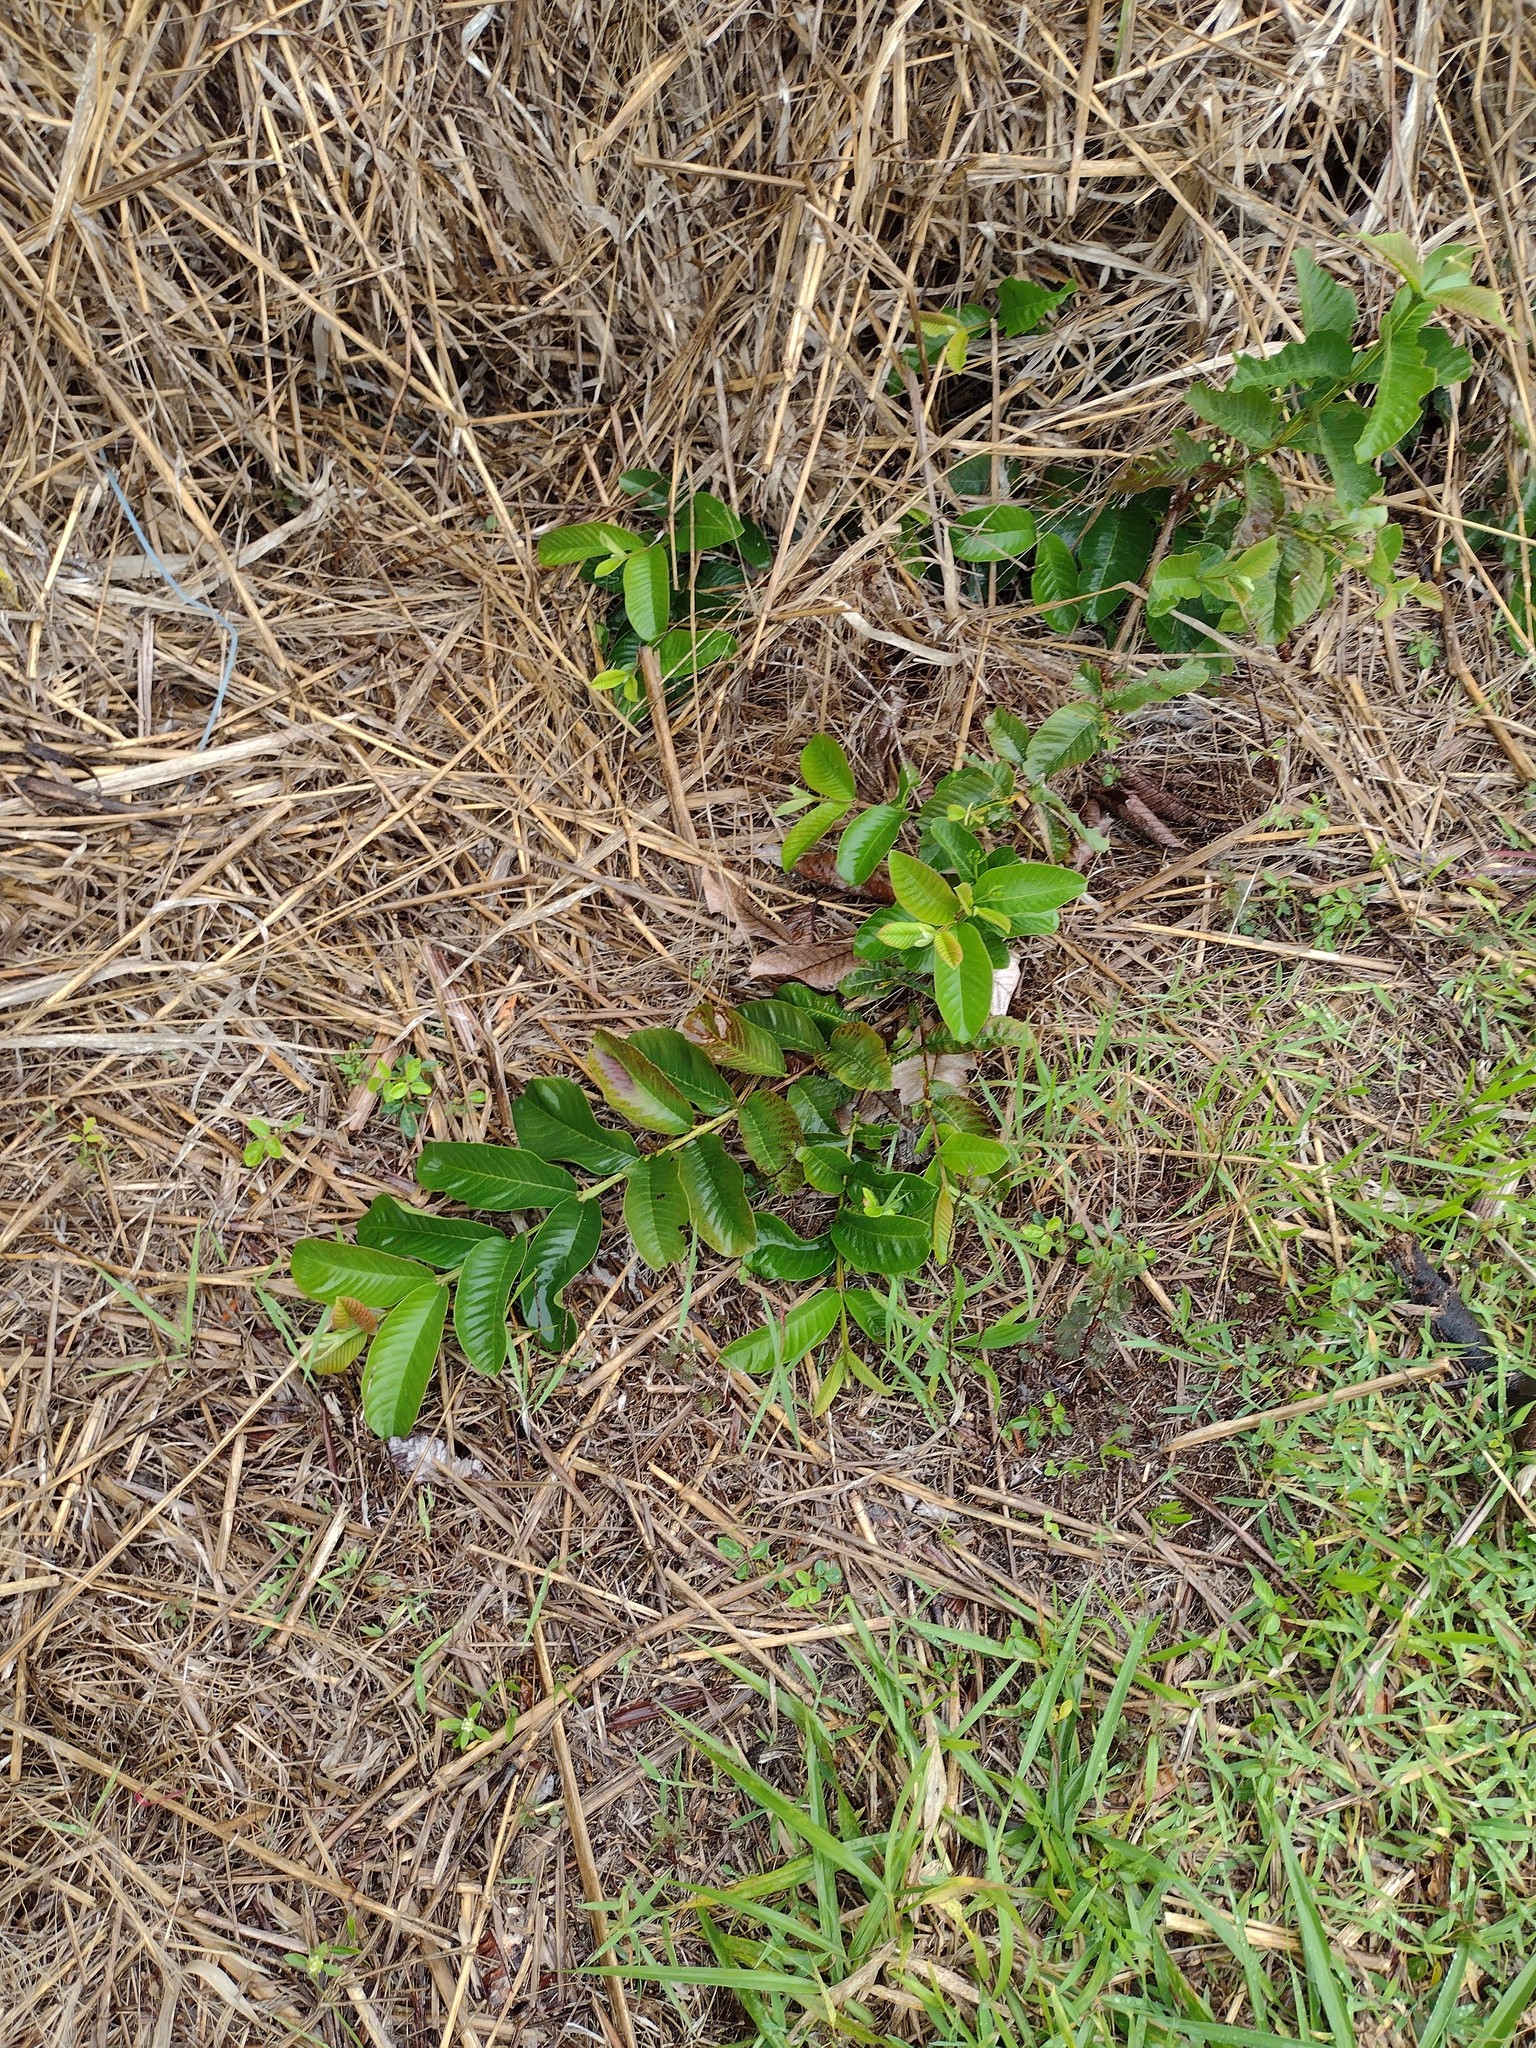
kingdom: Plantae
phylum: Tracheophyta
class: Magnoliopsida
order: Myrtales
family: Myrtaceae
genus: Psidium
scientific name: Psidium guajava
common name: Guava
